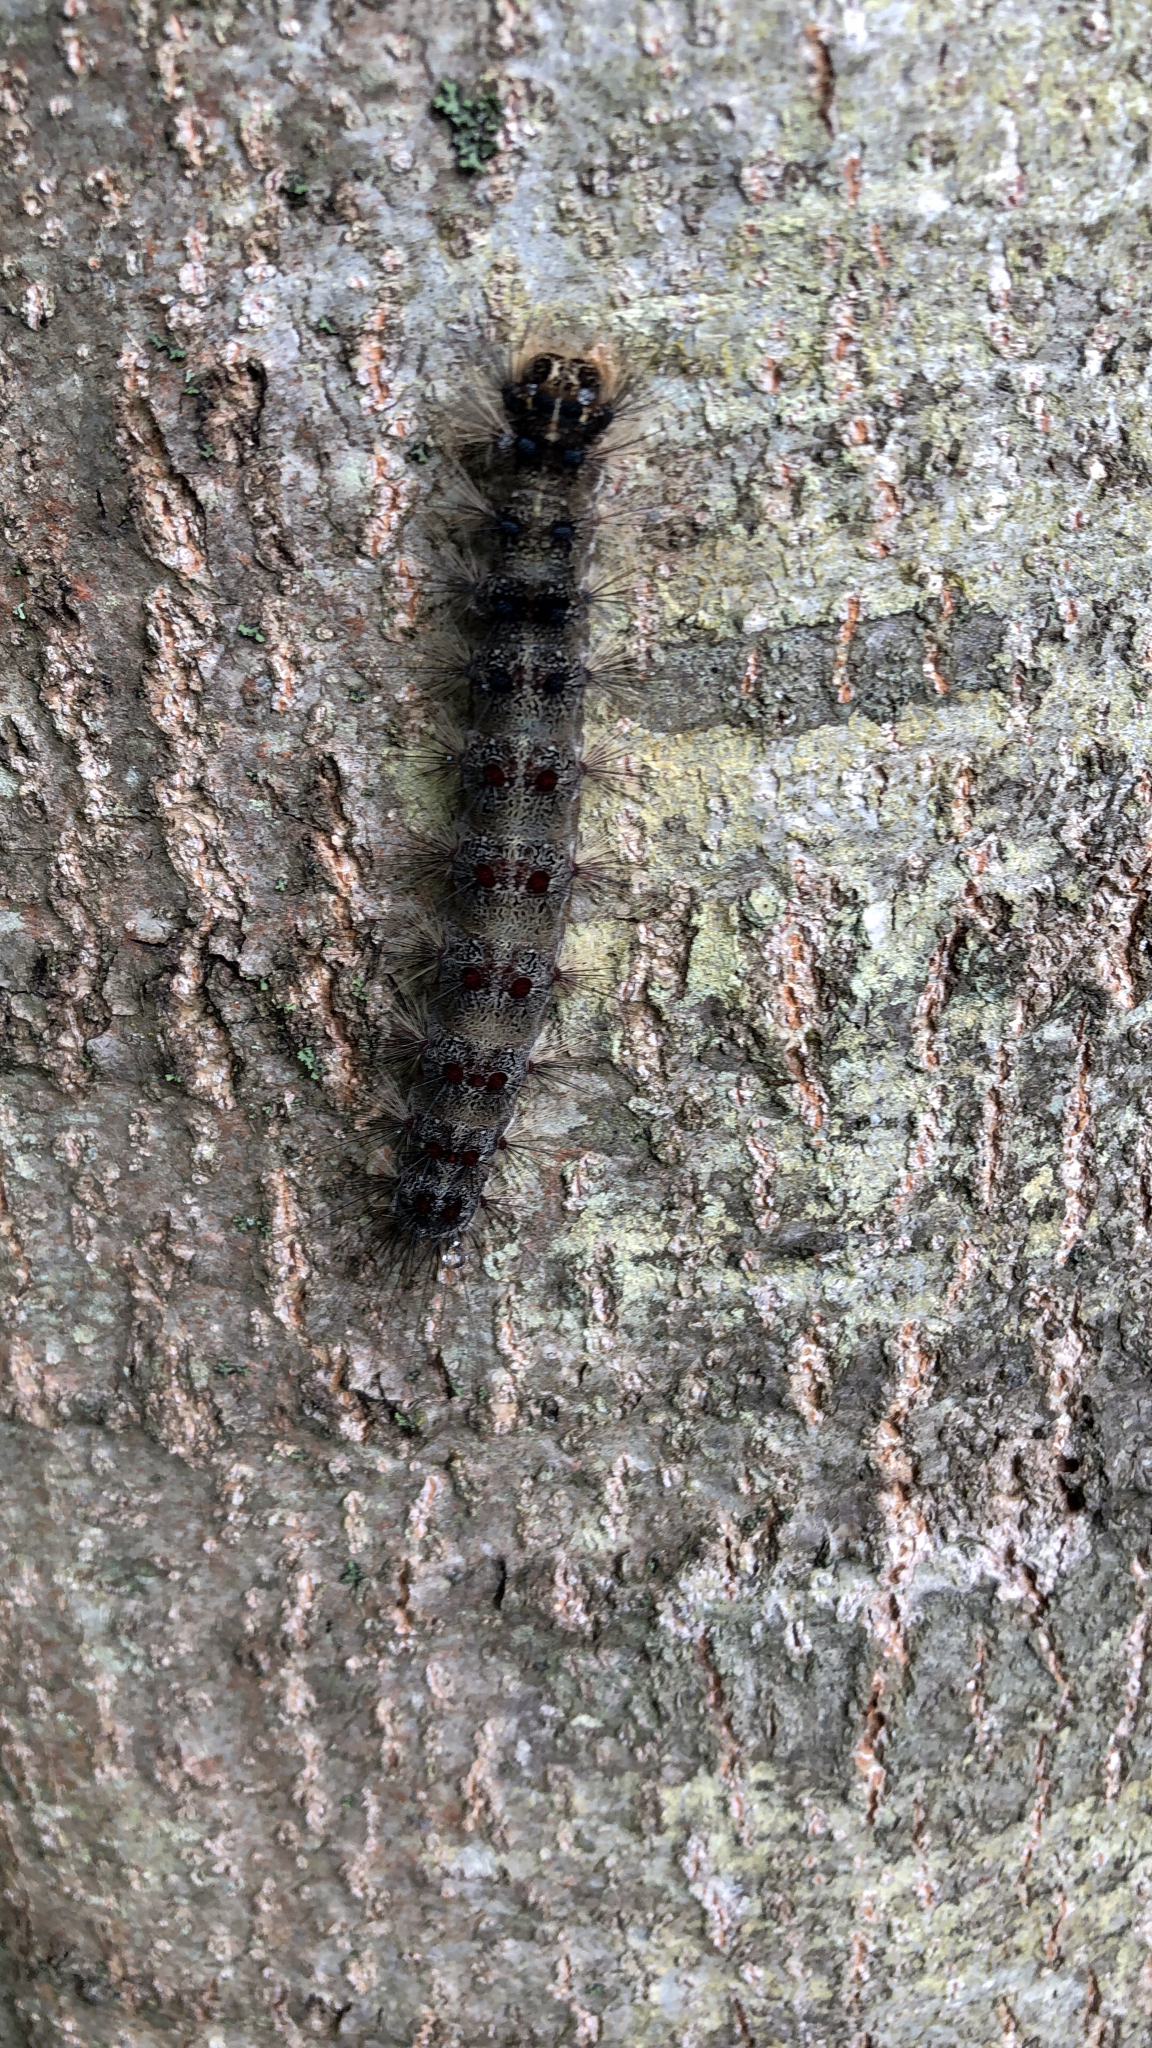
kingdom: Animalia
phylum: Arthropoda
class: Insecta
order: Lepidoptera
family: Erebidae
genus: Lymantria
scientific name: Lymantria dispar
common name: Gypsy moth
